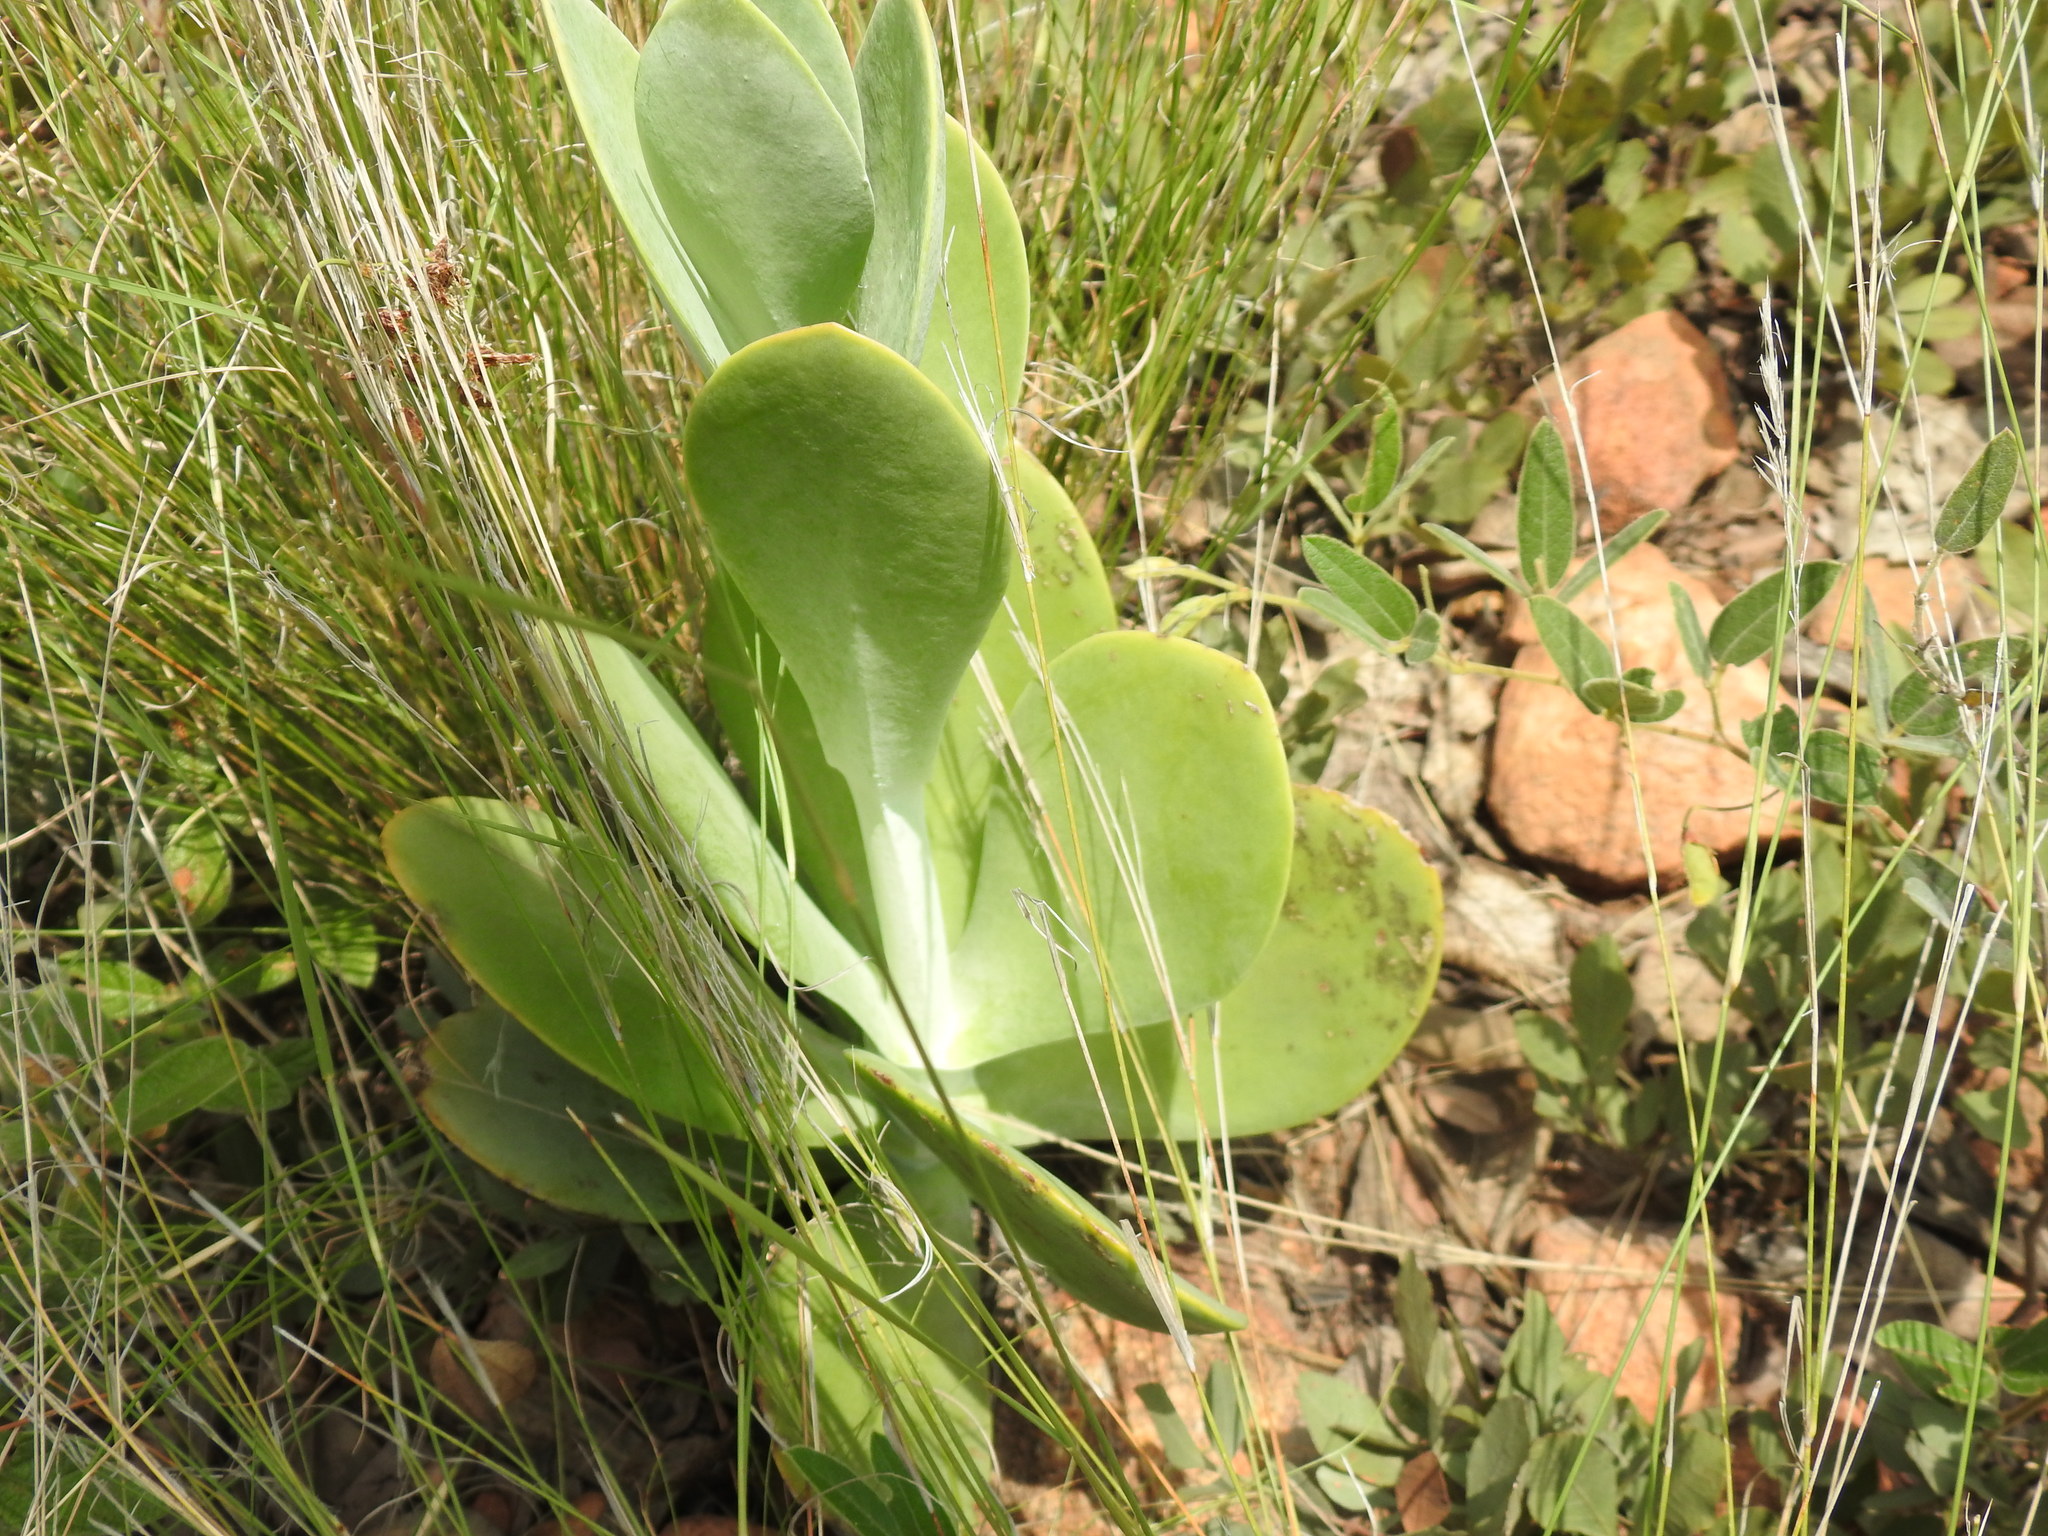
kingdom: Plantae
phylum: Tracheophyta
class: Magnoliopsida
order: Saxifragales
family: Crassulaceae
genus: Kalanchoe
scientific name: Kalanchoe thyrsiflora
